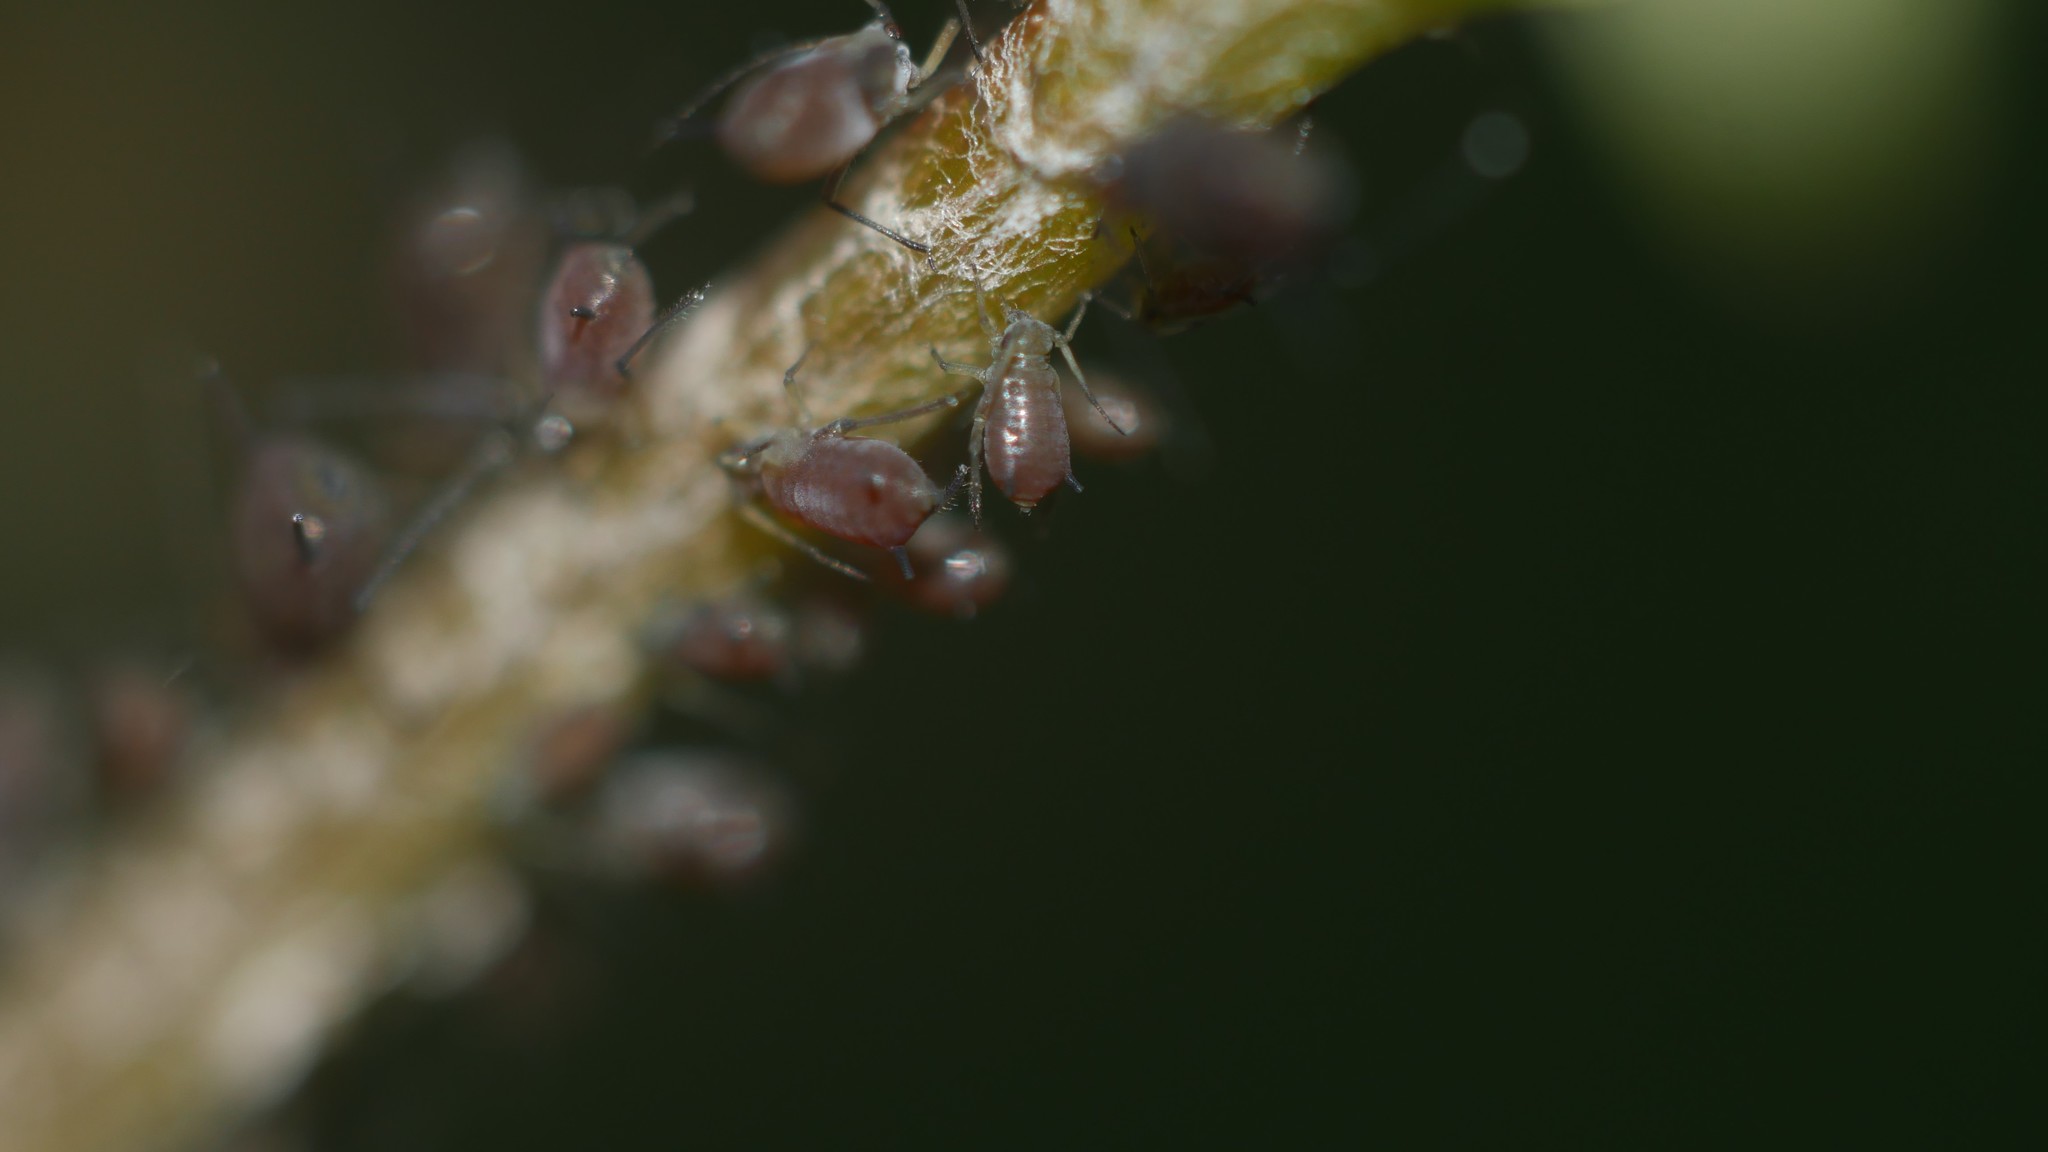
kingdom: Animalia
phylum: Arthropoda
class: Insecta
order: Hemiptera
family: Aphididae
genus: Aphis
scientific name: Aphis illinoisensis
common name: Grapevine aphid
